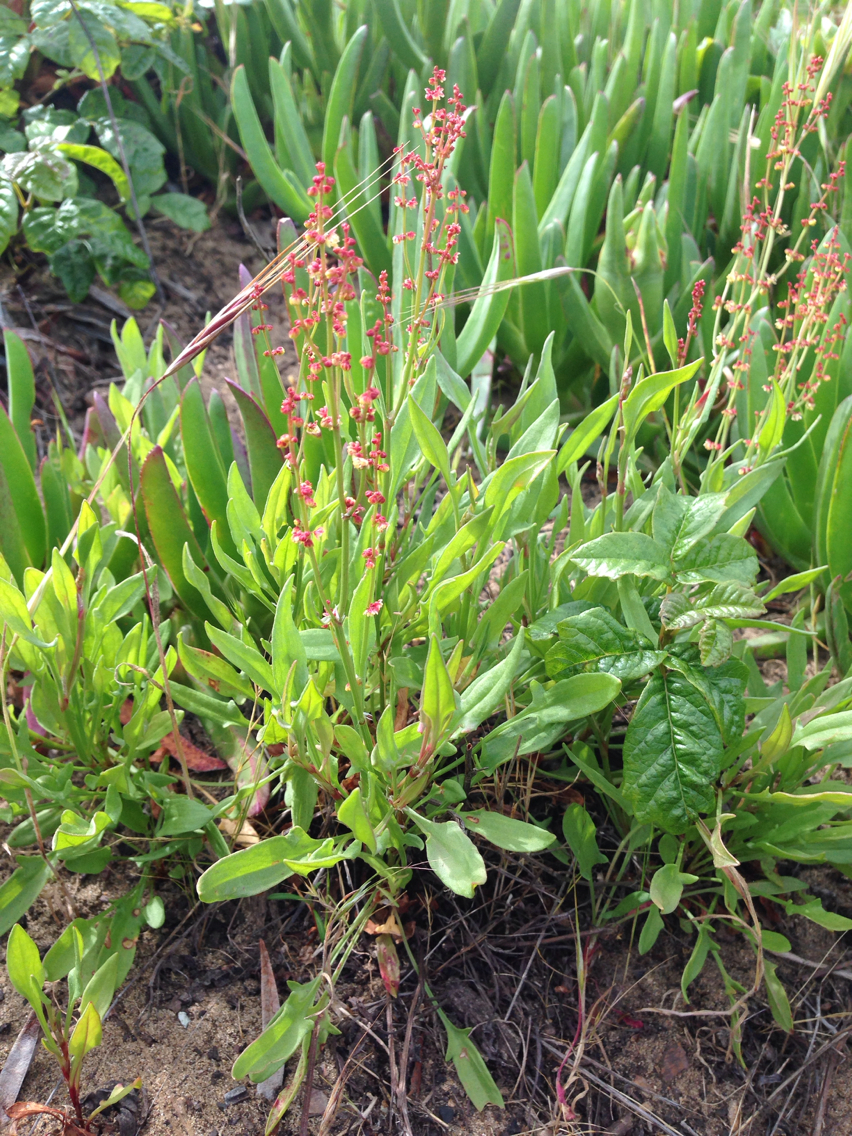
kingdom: Plantae
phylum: Tracheophyta
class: Magnoliopsida
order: Caryophyllales
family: Polygonaceae
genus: Rumex
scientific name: Rumex acetosella
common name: Common sheep sorrel
